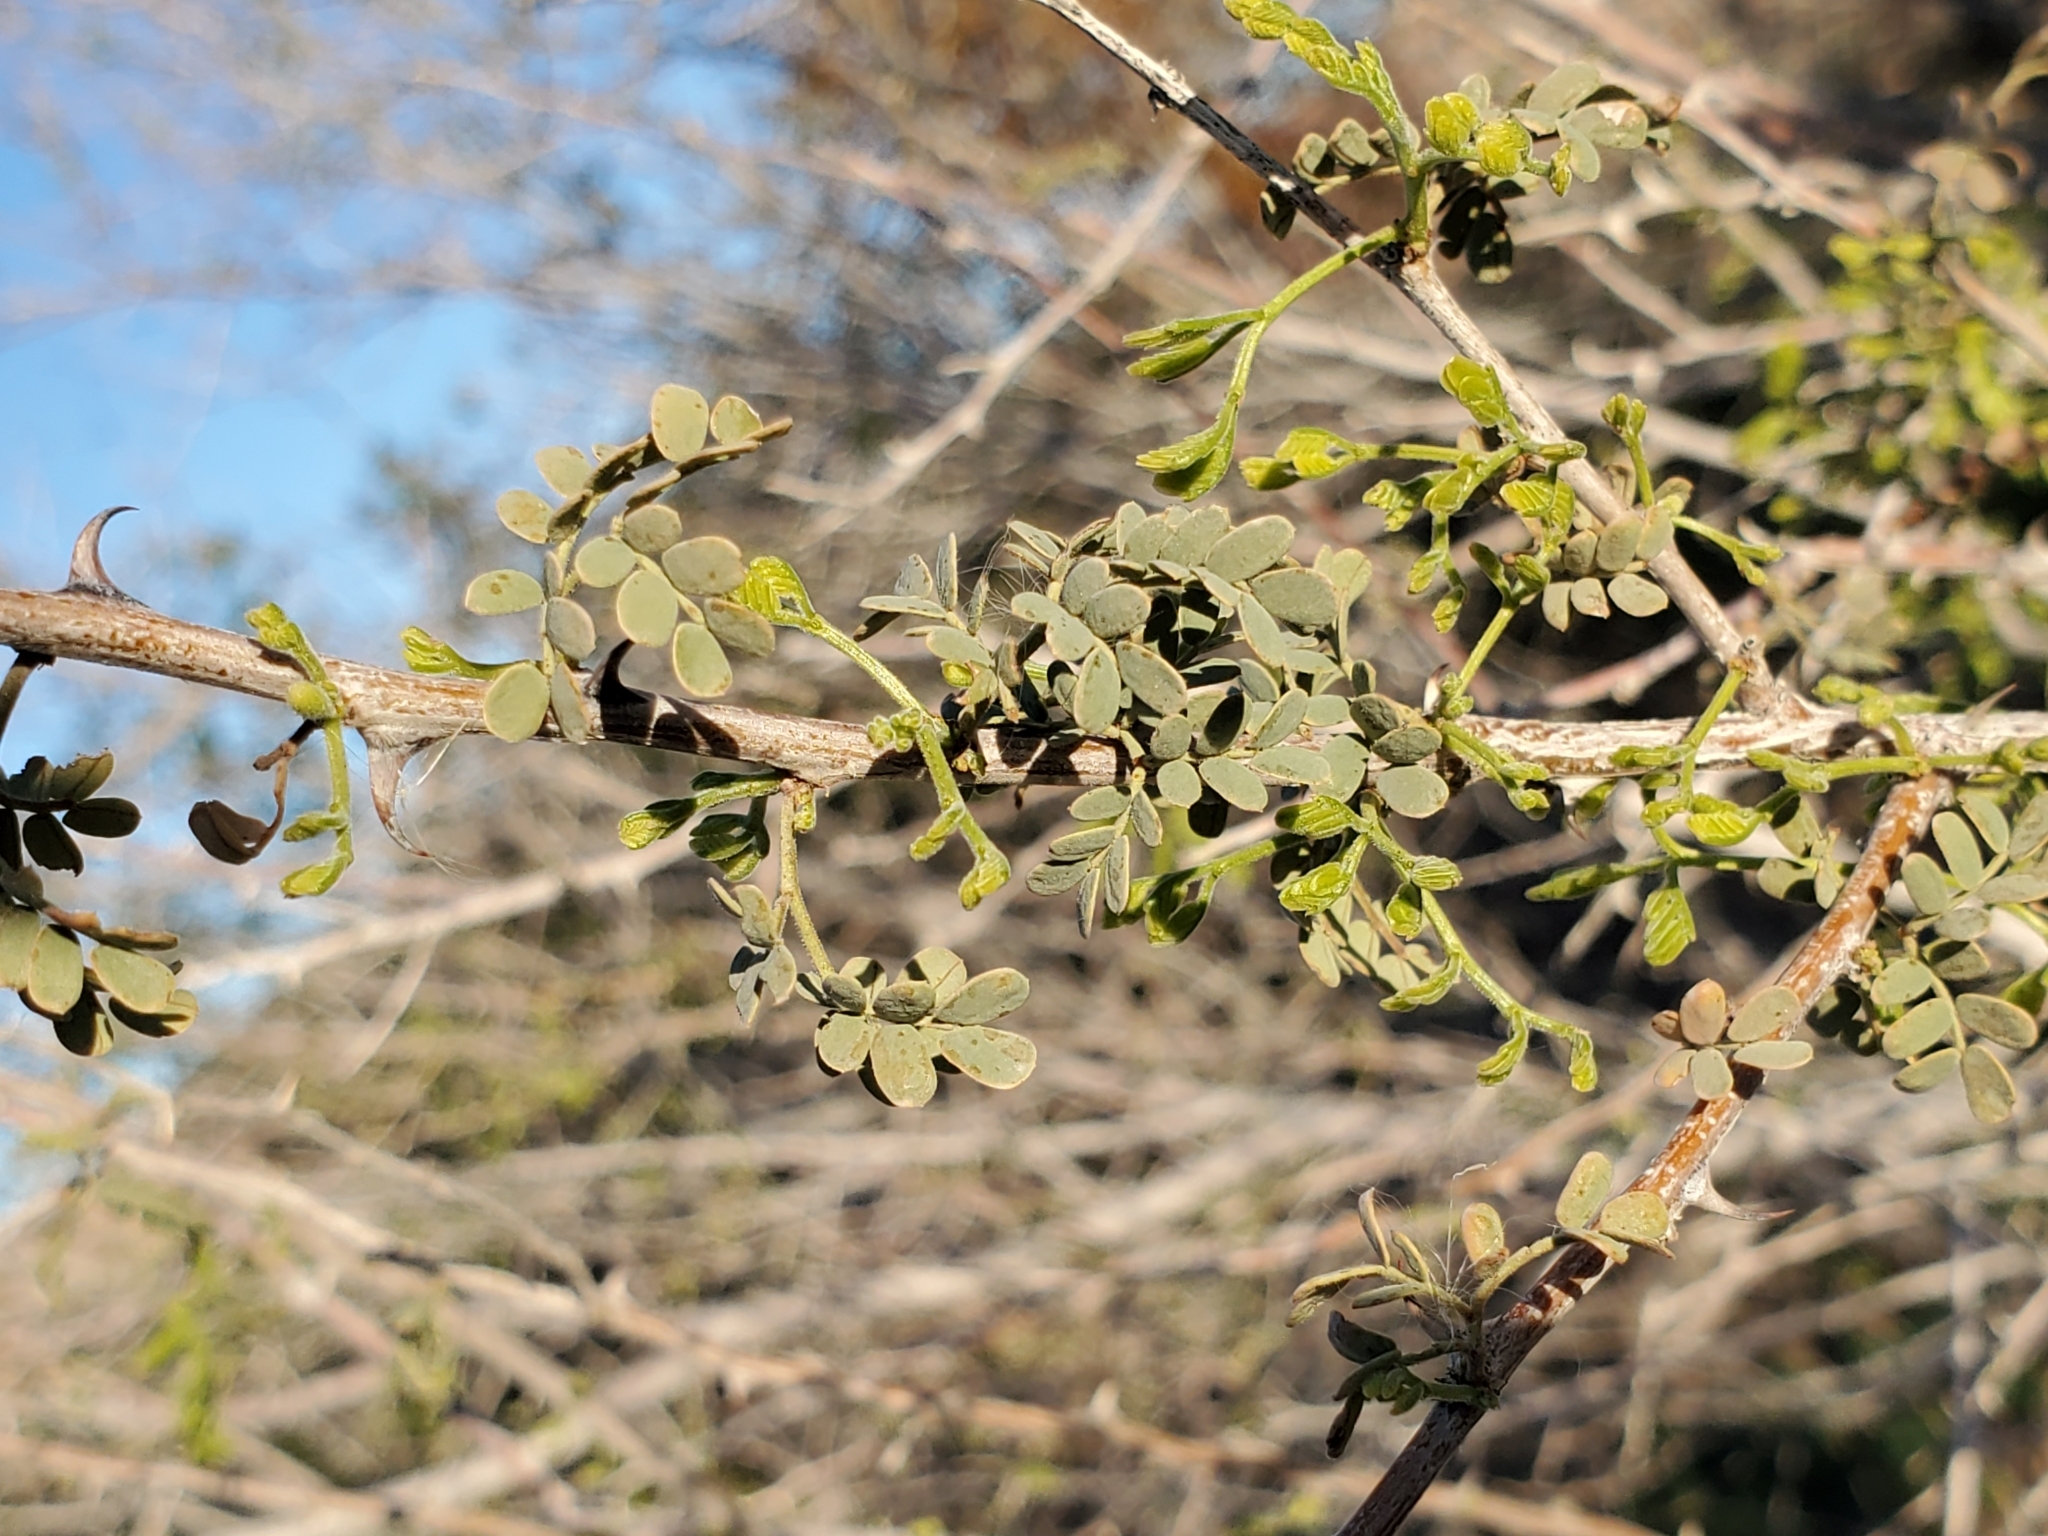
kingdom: Plantae
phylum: Tracheophyta
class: Magnoliopsida
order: Fabales
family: Fabaceae
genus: Senegalia
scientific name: Senegalia greggii
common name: Texas-mimosa
